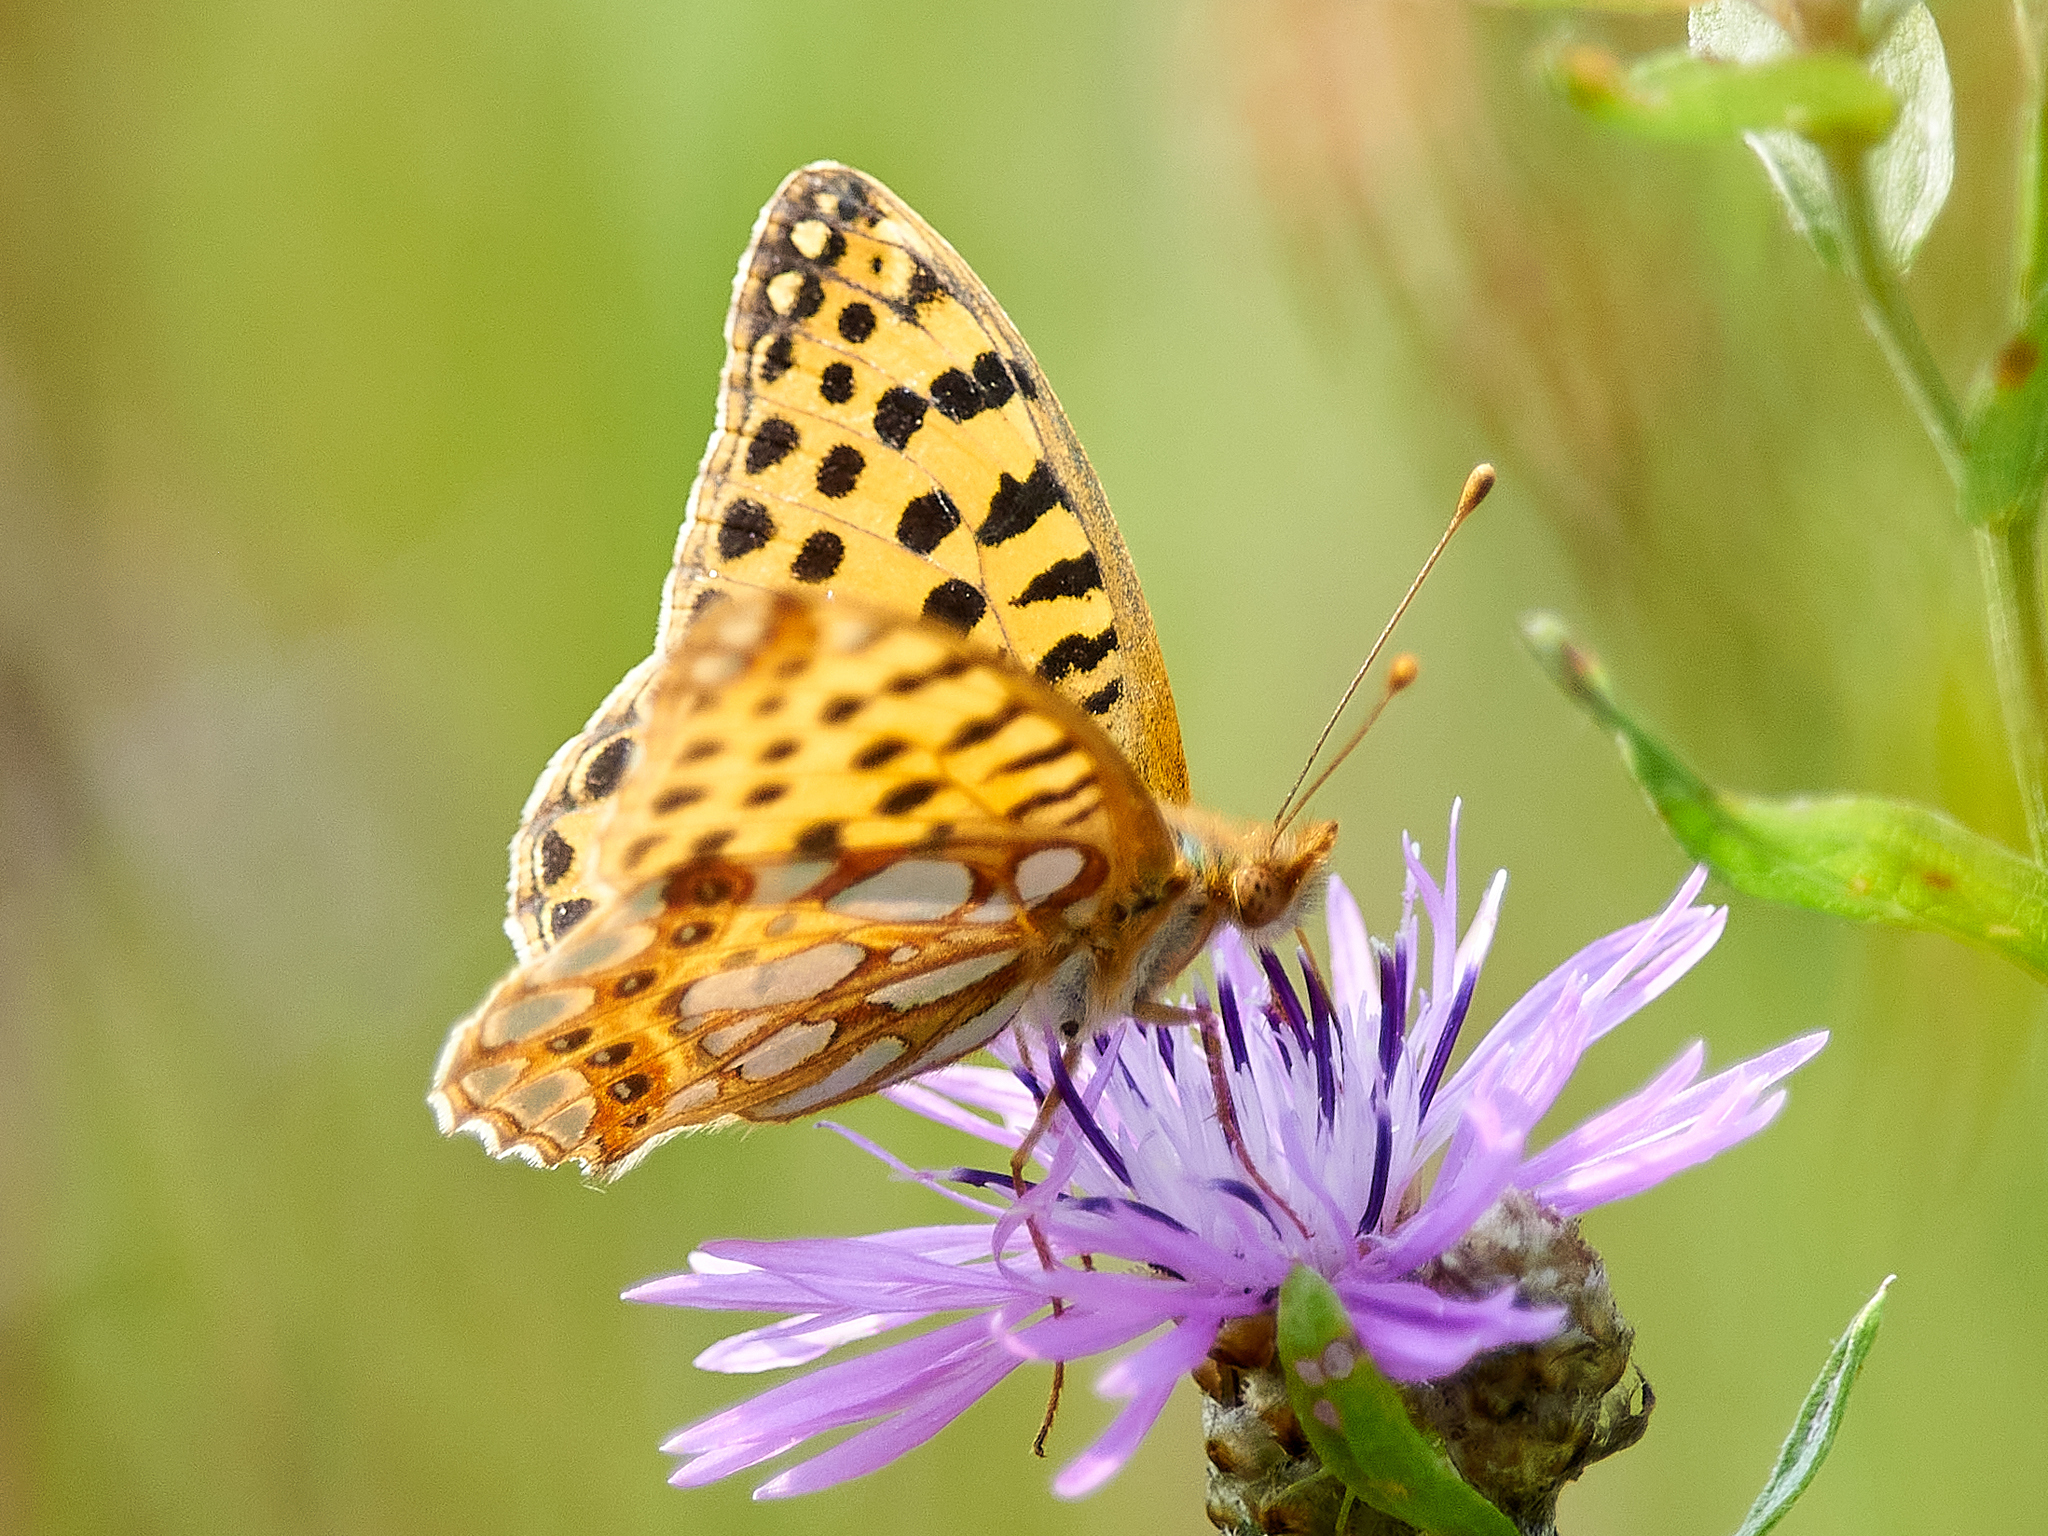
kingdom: Animalia
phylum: Arthropoda
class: Insecta
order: Lepidoptera
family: Nymphalidae
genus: Issoria
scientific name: Issoria lathonia
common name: Queen of spain fritillary
